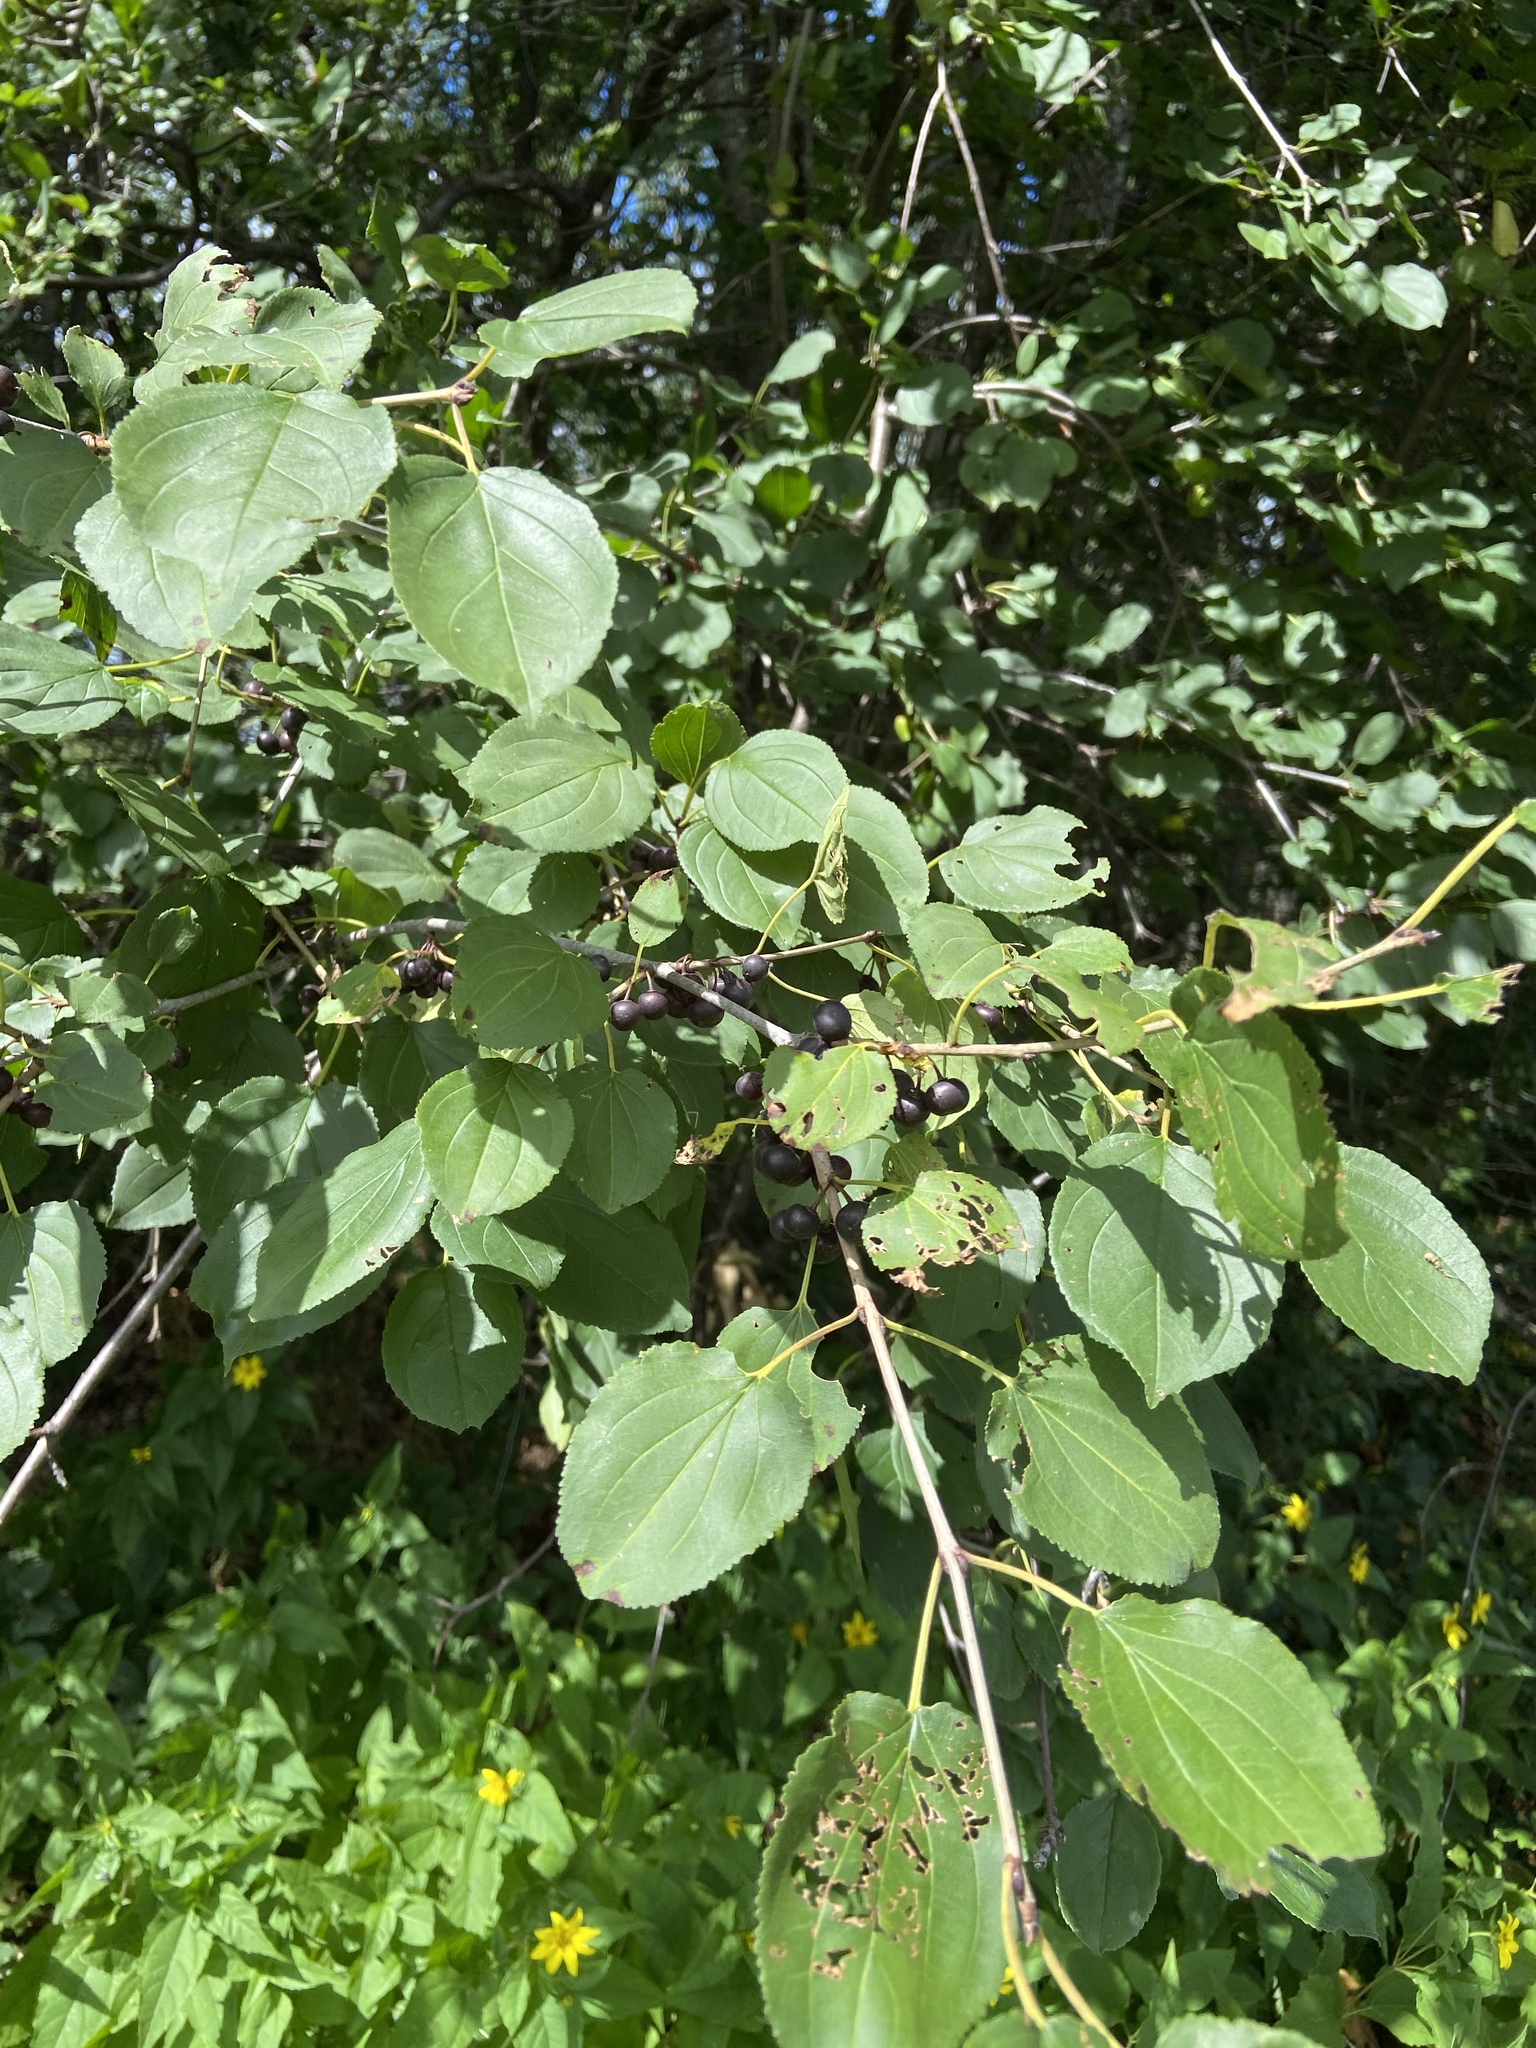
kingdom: Plantae
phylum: Tracheophyta
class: Magnoliopsida
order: Rosales
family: Rhamnaceae
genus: Rhamnus
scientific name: Rhamnus cathartica
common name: Common buckthorn
